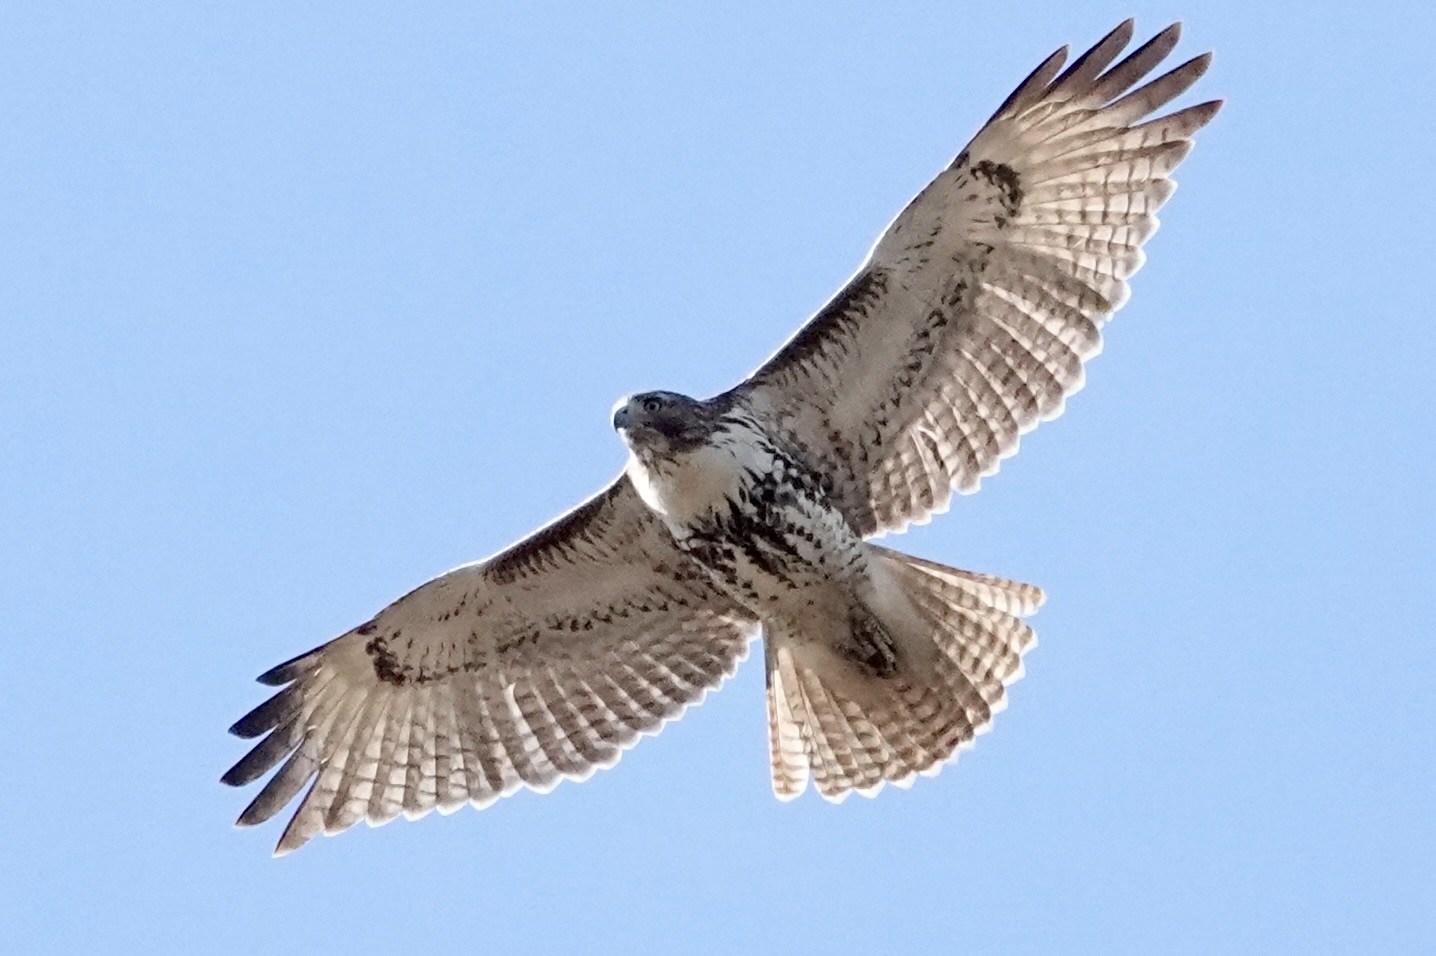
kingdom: Animalia
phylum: Chordata
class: Aves
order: Accipitriformes
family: Accipitridae
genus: Buteo
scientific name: Buteo jamaicensis
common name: Red-tailed hawk
